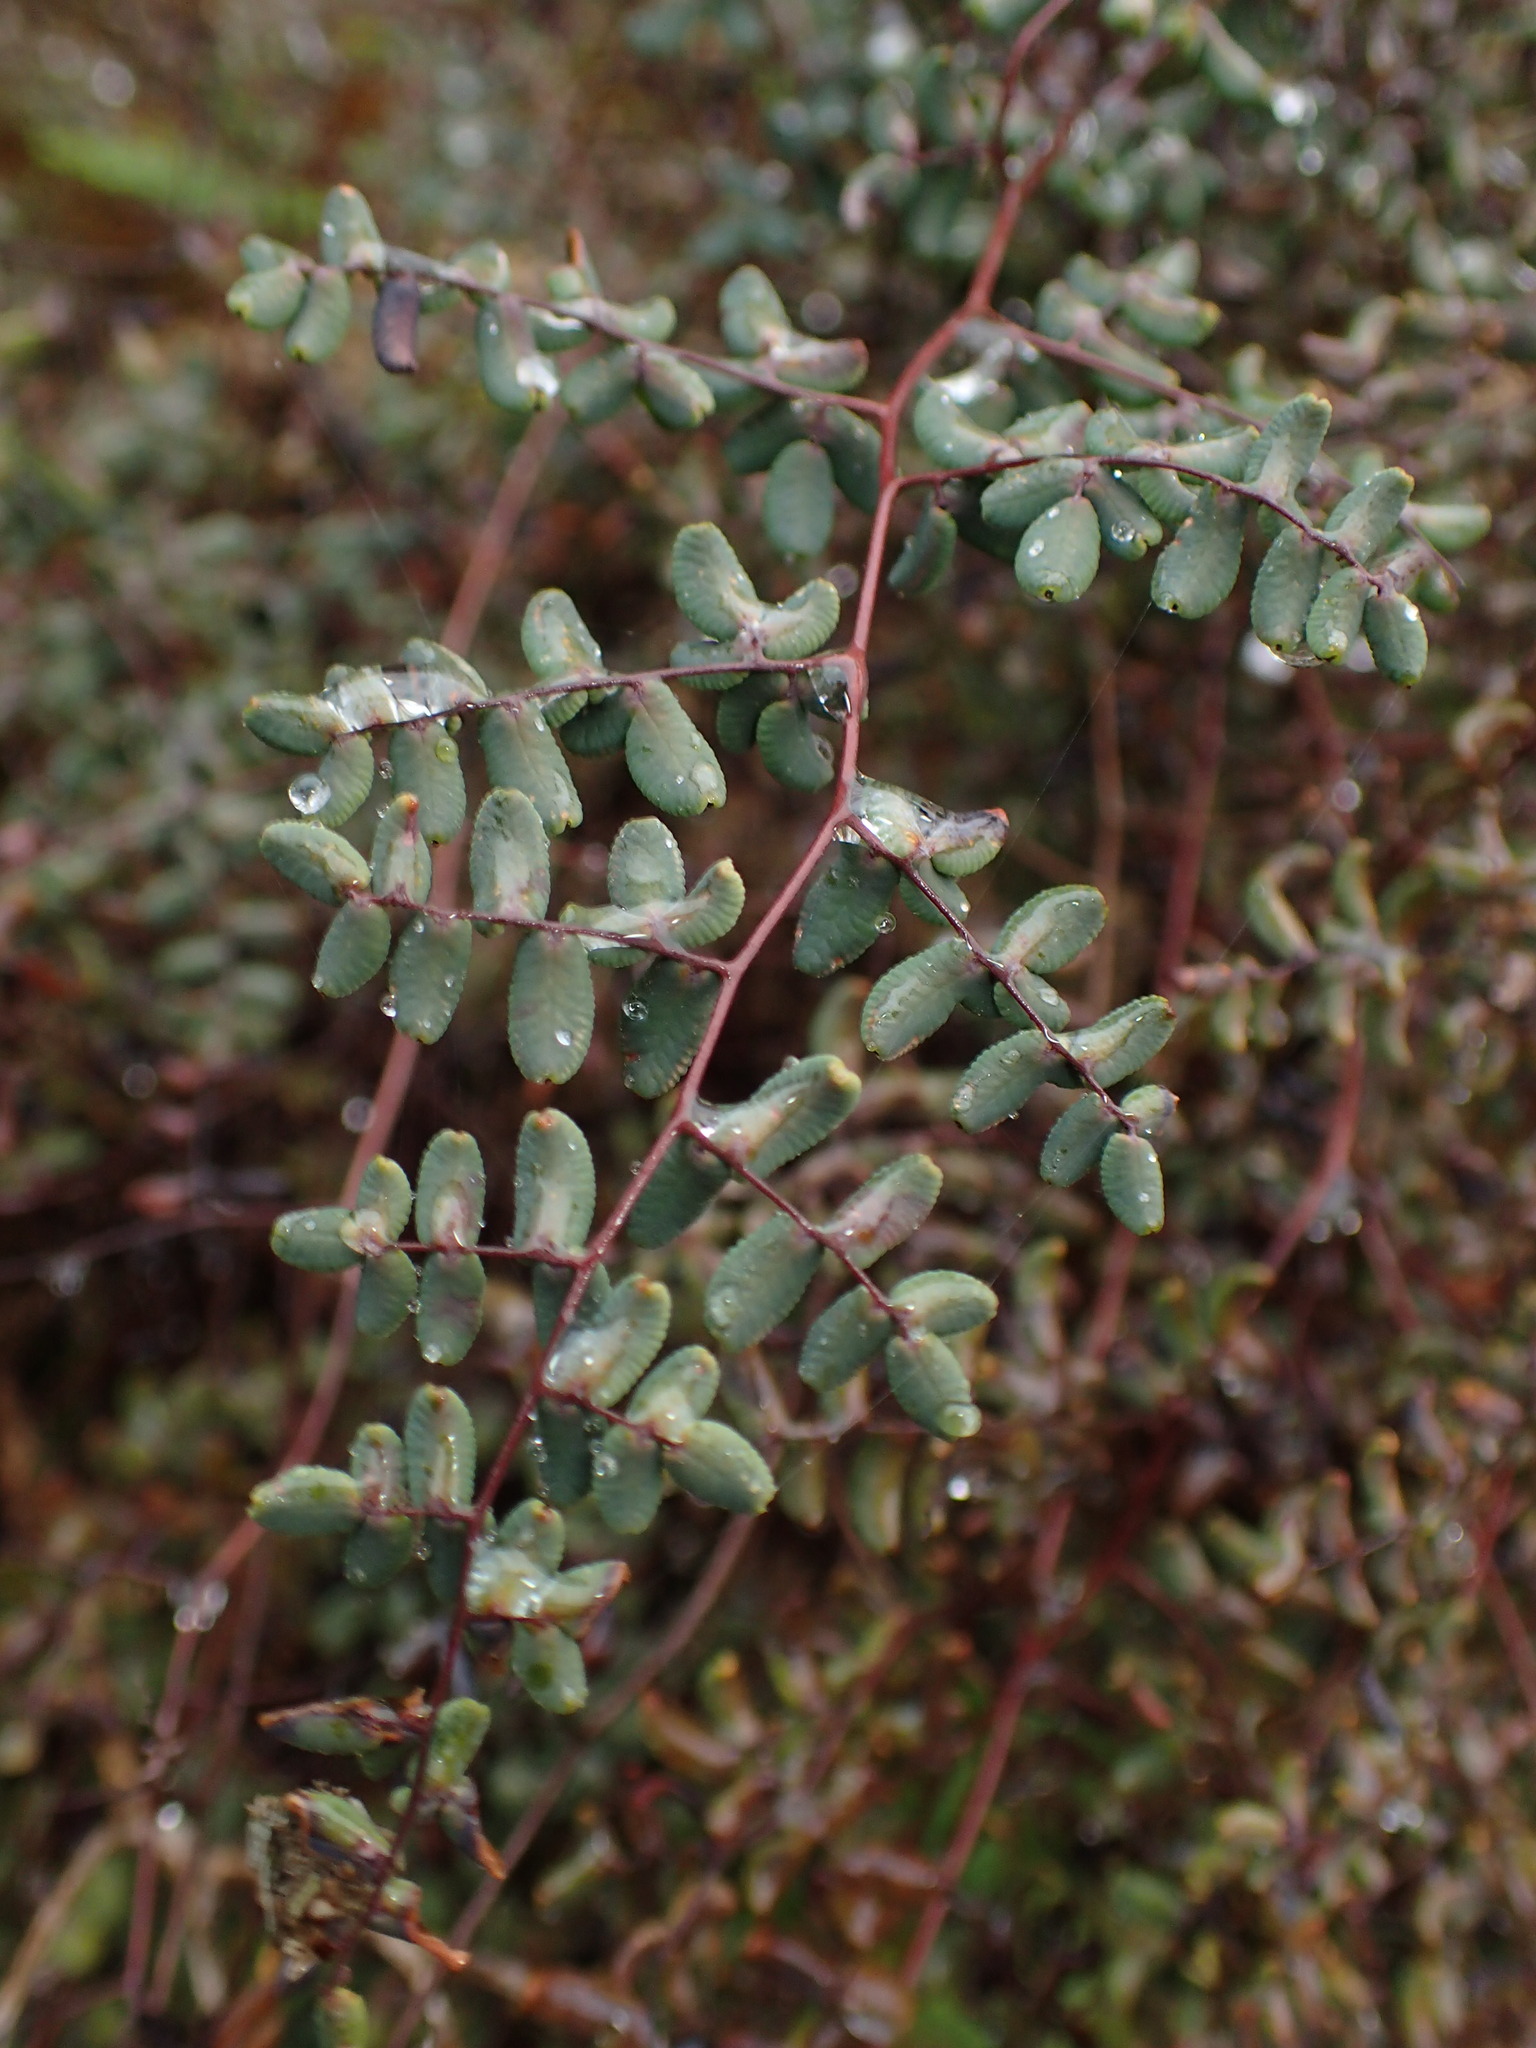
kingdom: Plantae
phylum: Tracheophyta
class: Polypodiopsida
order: Polypodiales
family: Pteridaceae
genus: Pellaea
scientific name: Pellaea andromedifolia
